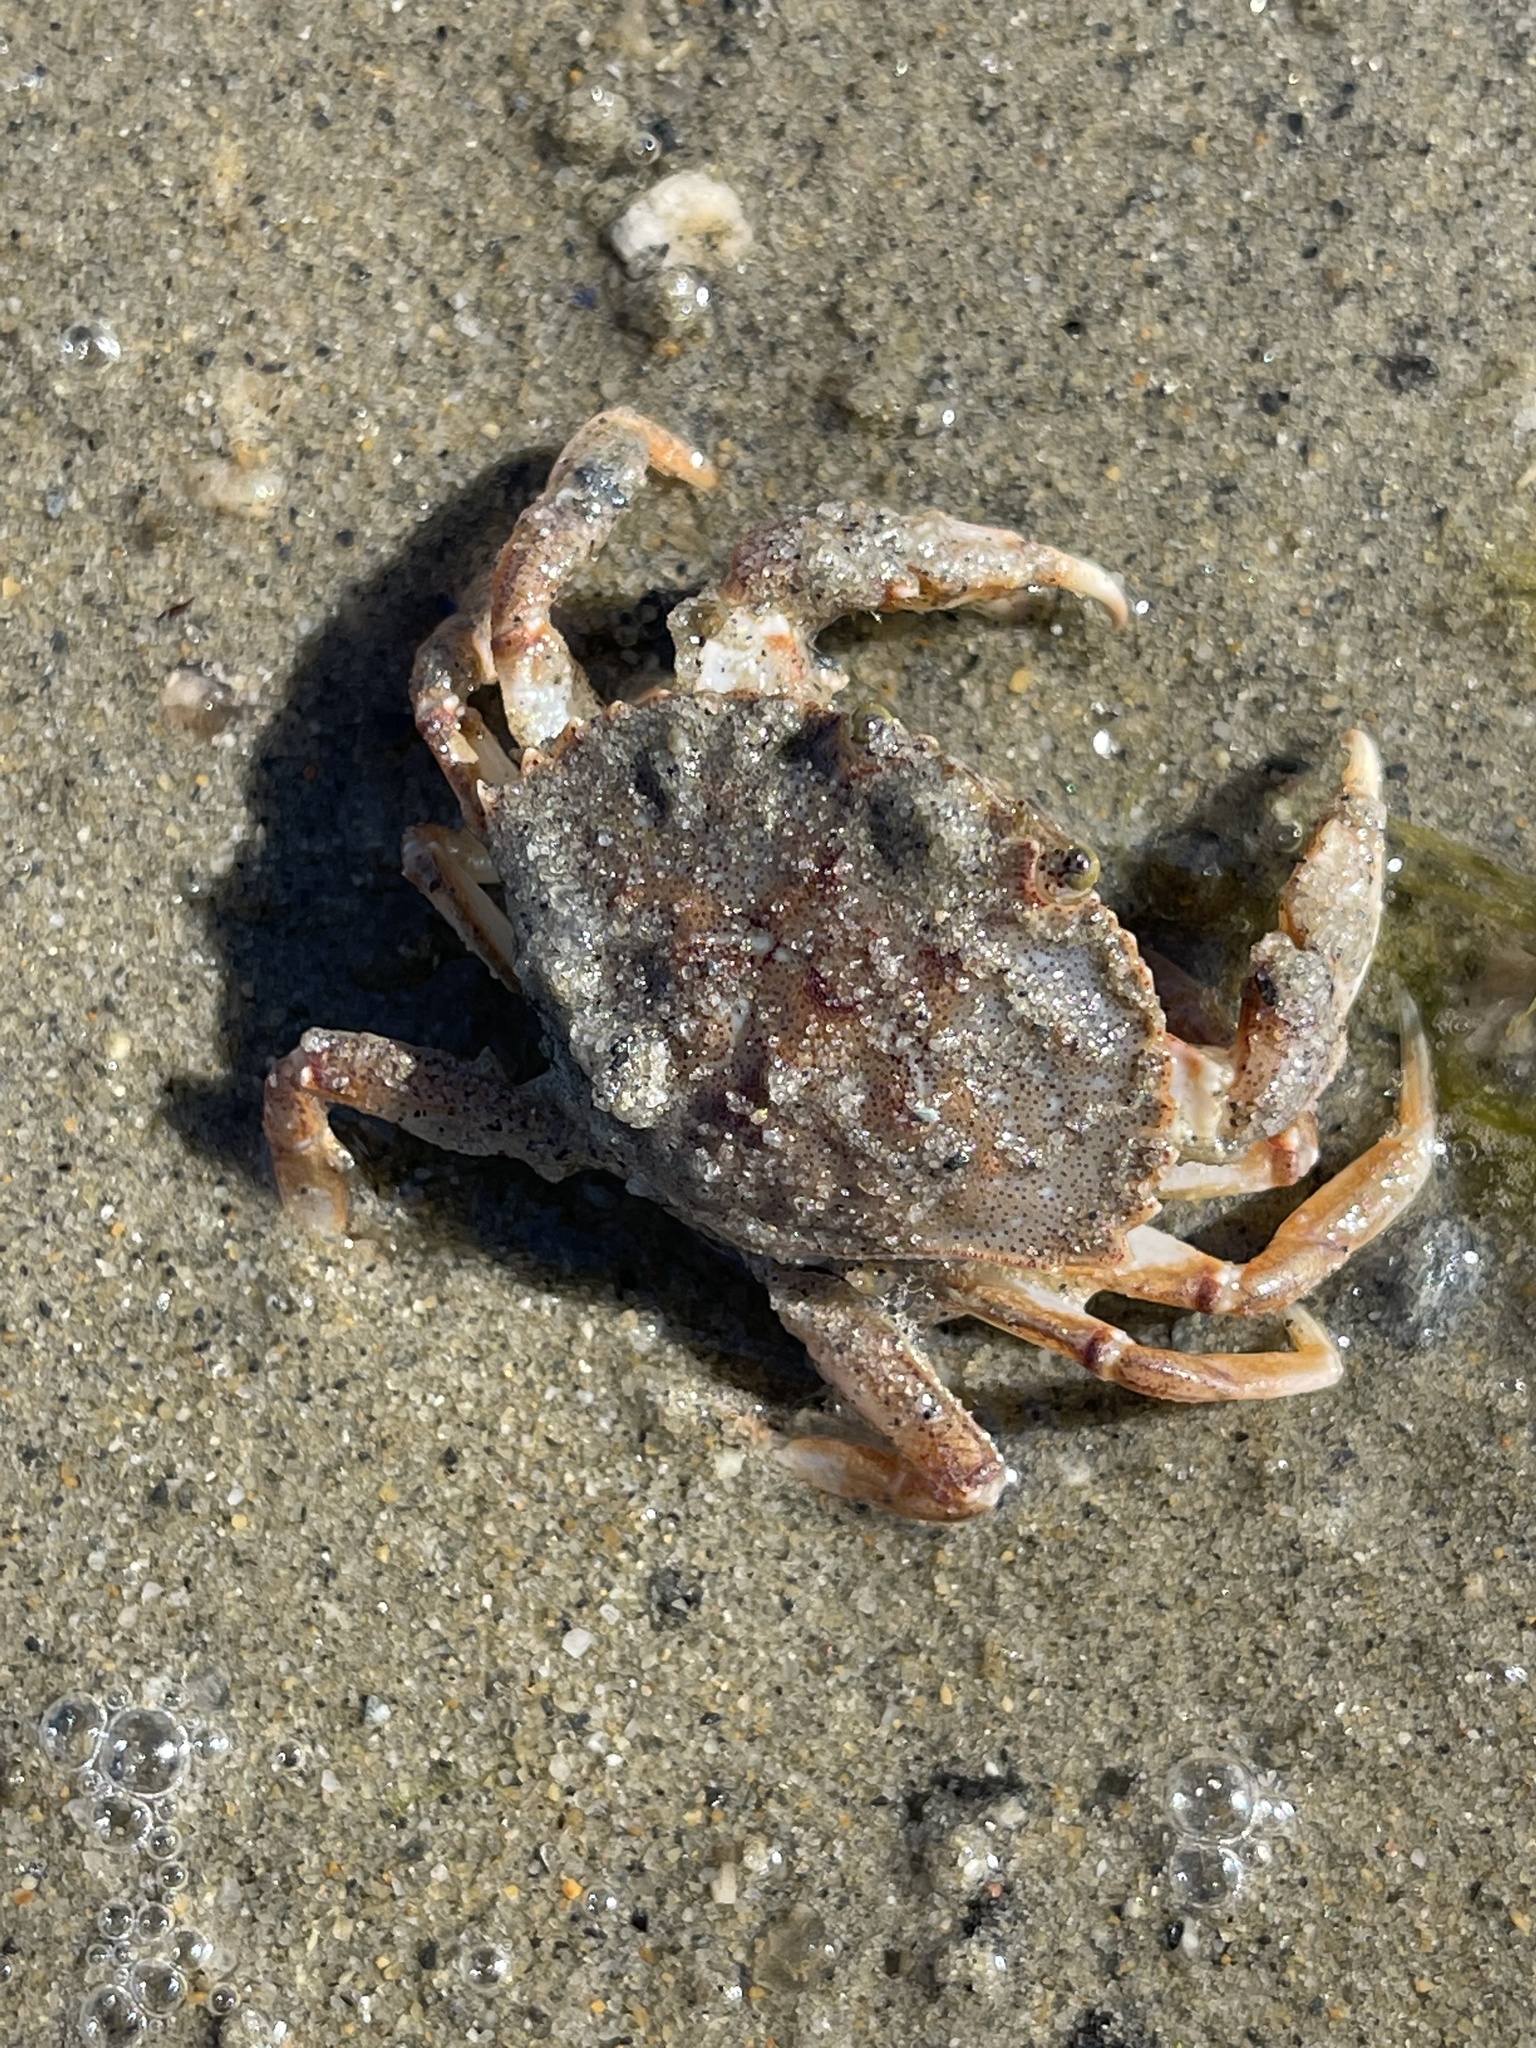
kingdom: Animalia
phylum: Arthropoda
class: Malacostraca
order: Decapoda
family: Cancridae
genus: Cancer
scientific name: Cancer irroratus
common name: Atlantic rock crab
